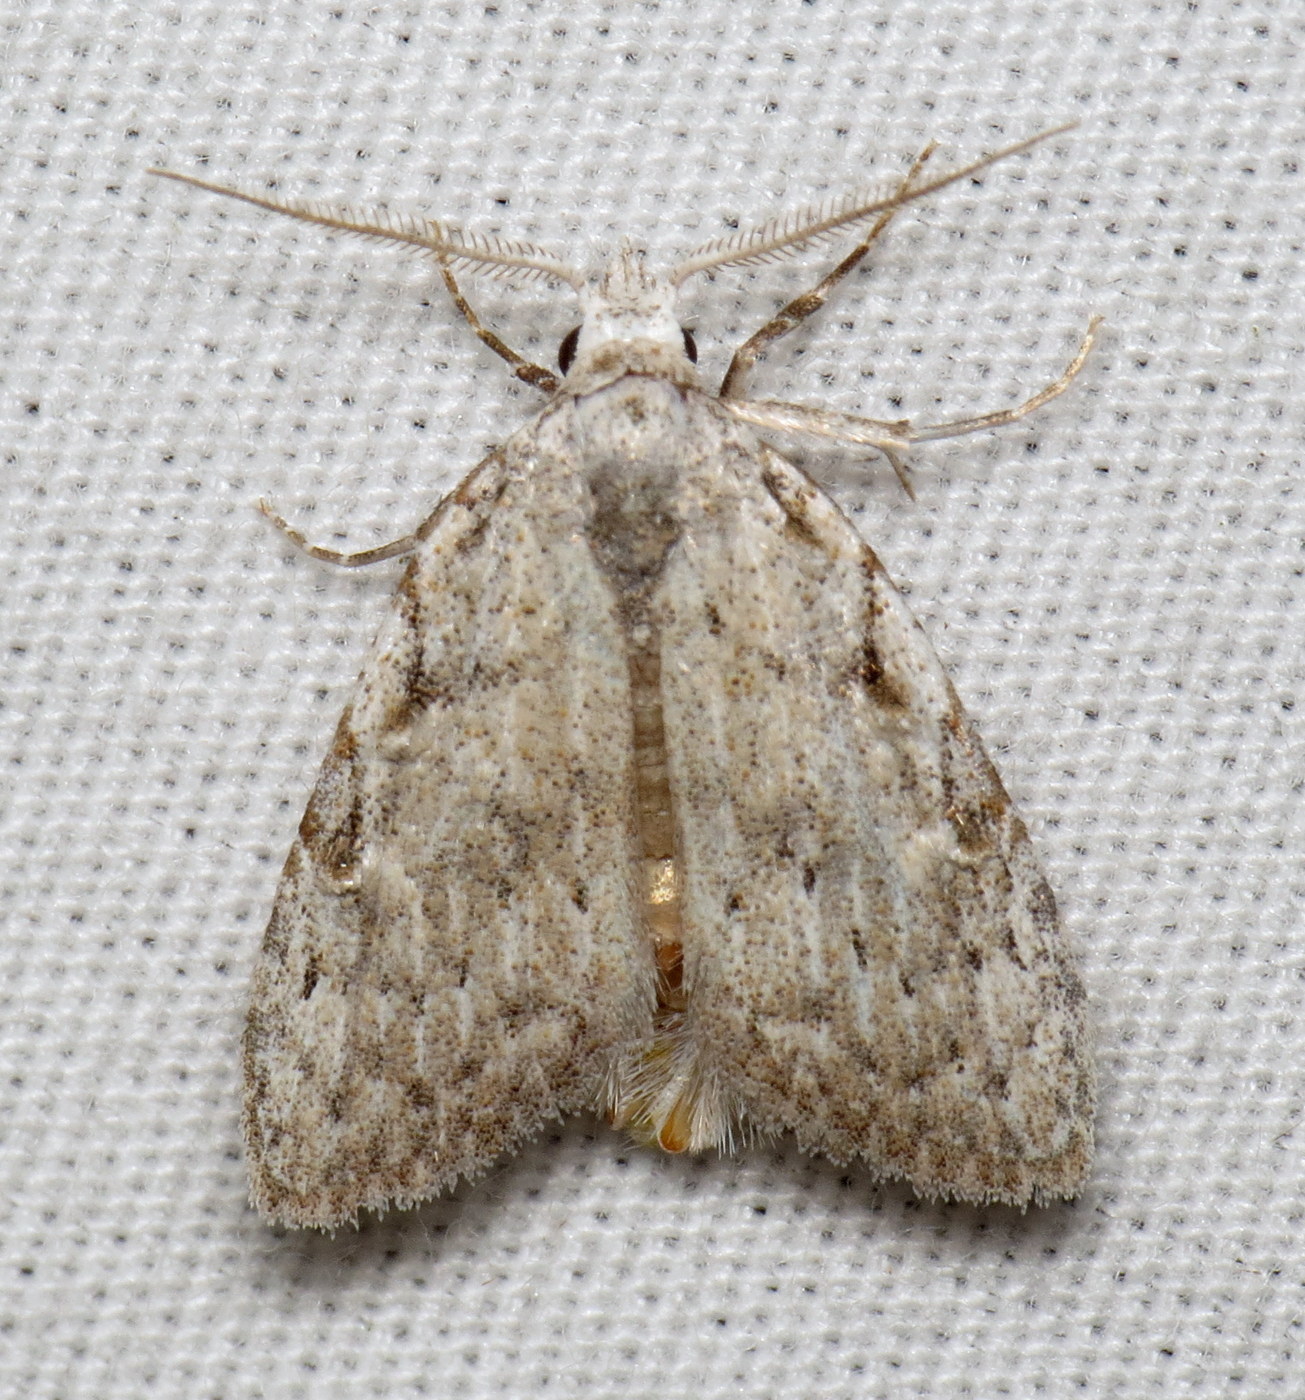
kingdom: Animalia
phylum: Arthropoda
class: Insecta
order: Lepidoptera
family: Nolidae
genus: Nola
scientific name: Nola clethrae
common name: Sweet pepperbush nola moth
